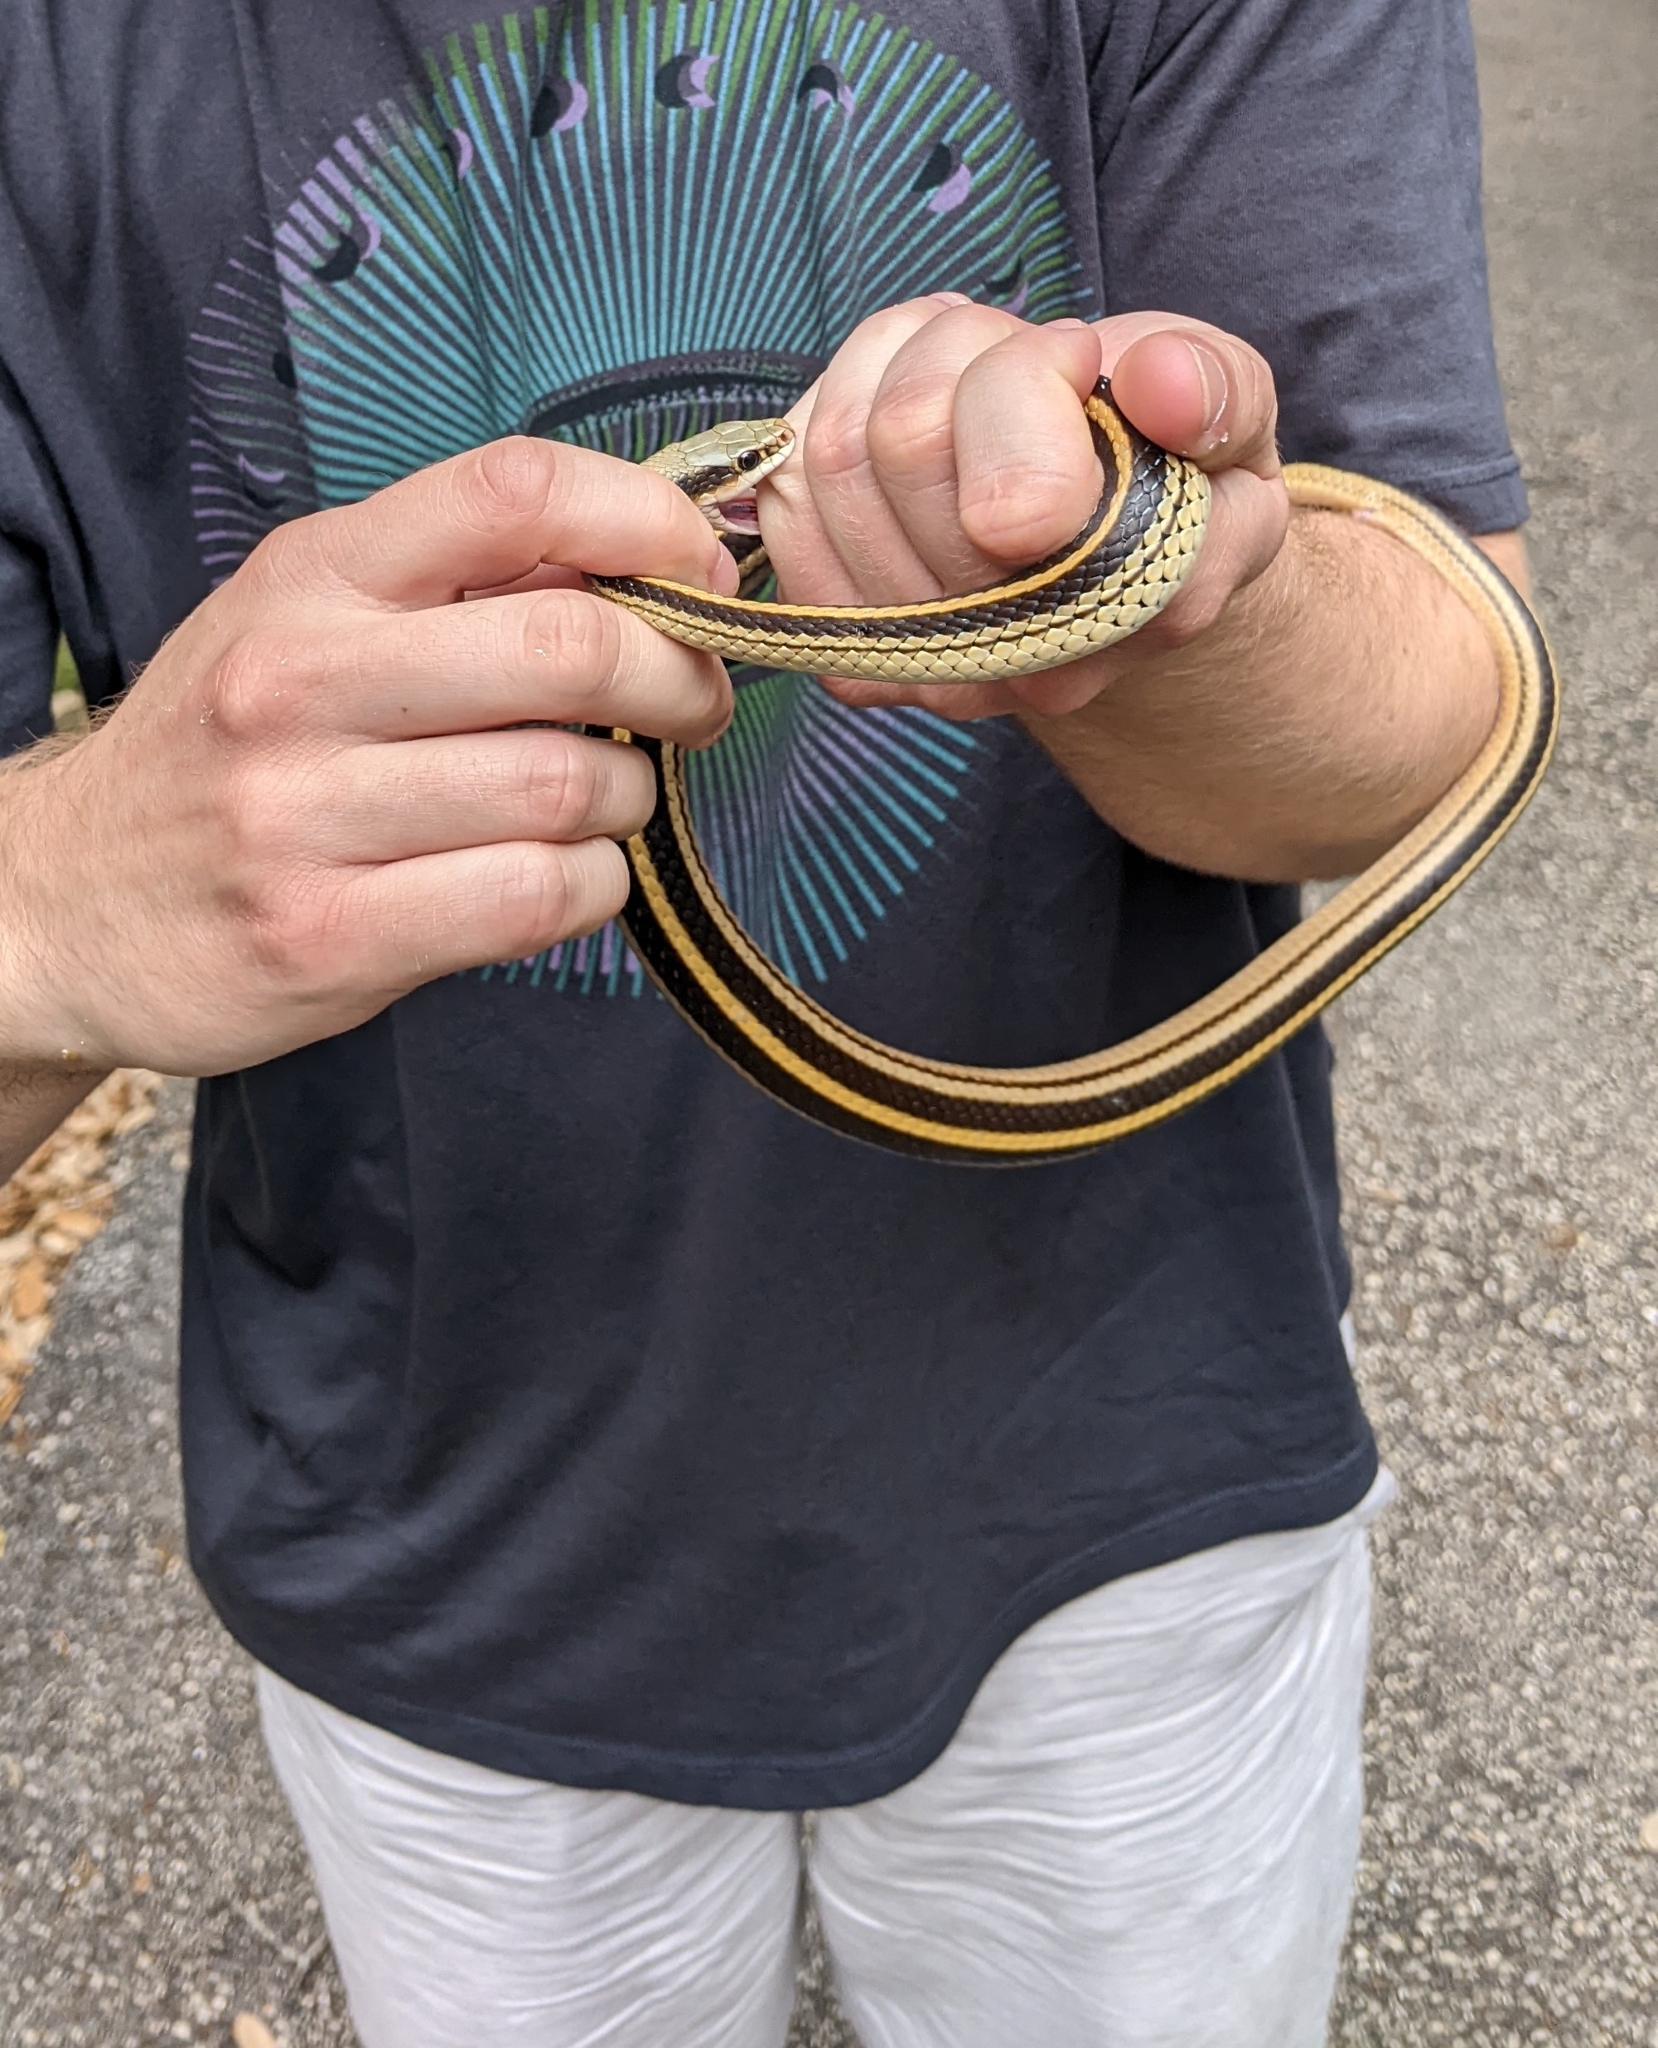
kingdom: Animalia
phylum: Chordata
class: Squamata
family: Colubridae
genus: Salvadora
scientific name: Salvadora lineata
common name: Texas patchnose snake
